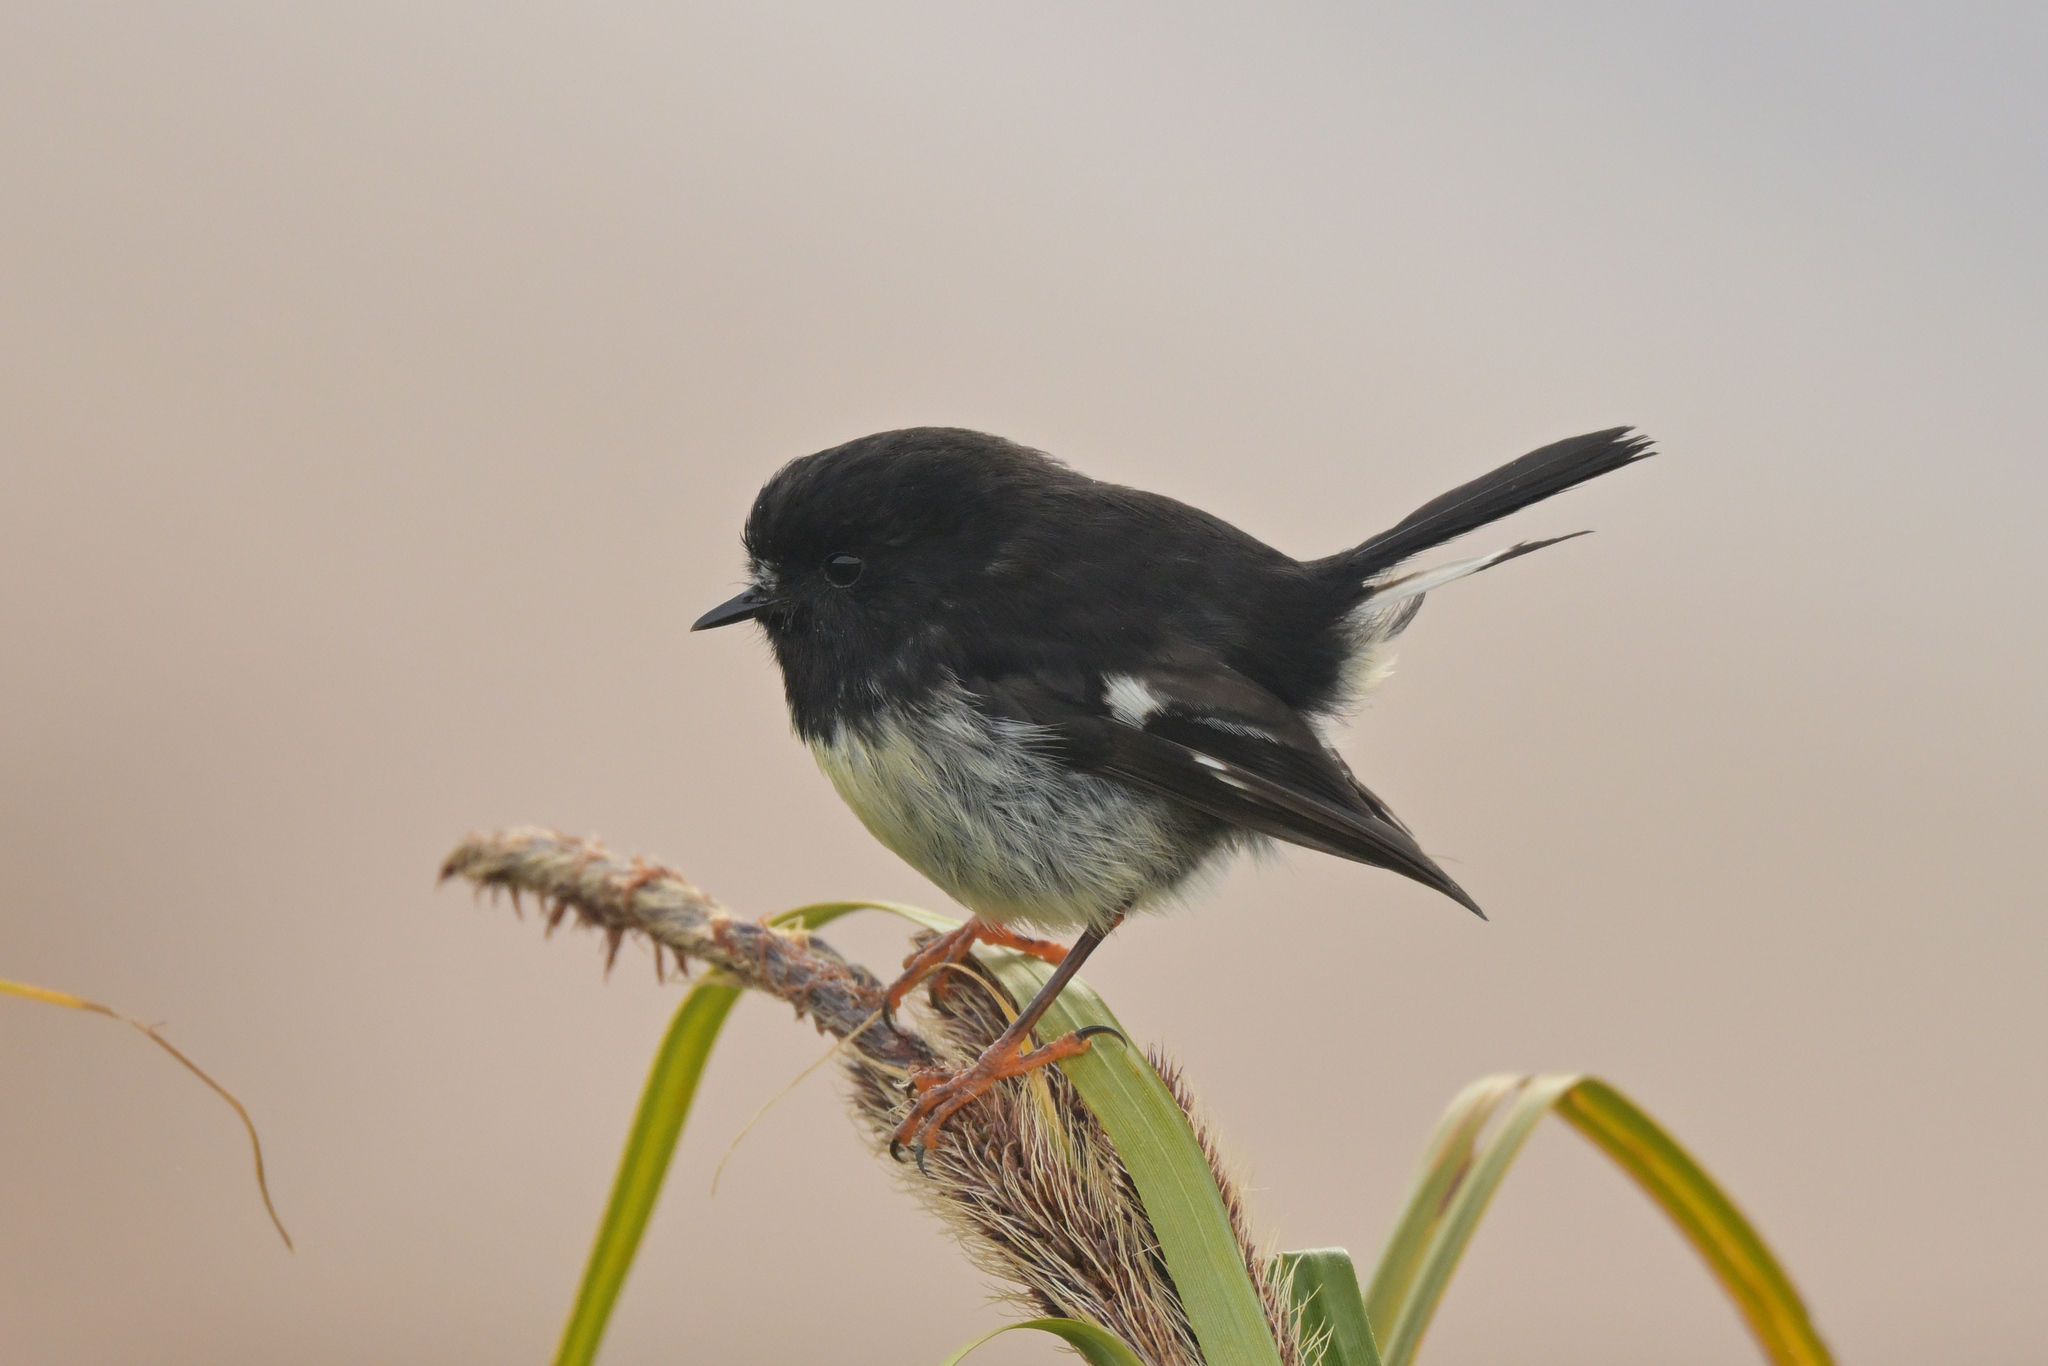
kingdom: Animalia
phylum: Chordata
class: Aves
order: Passeriformes
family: Petroicidae
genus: Petroica
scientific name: Petroica macrocephala
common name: Tomtit
